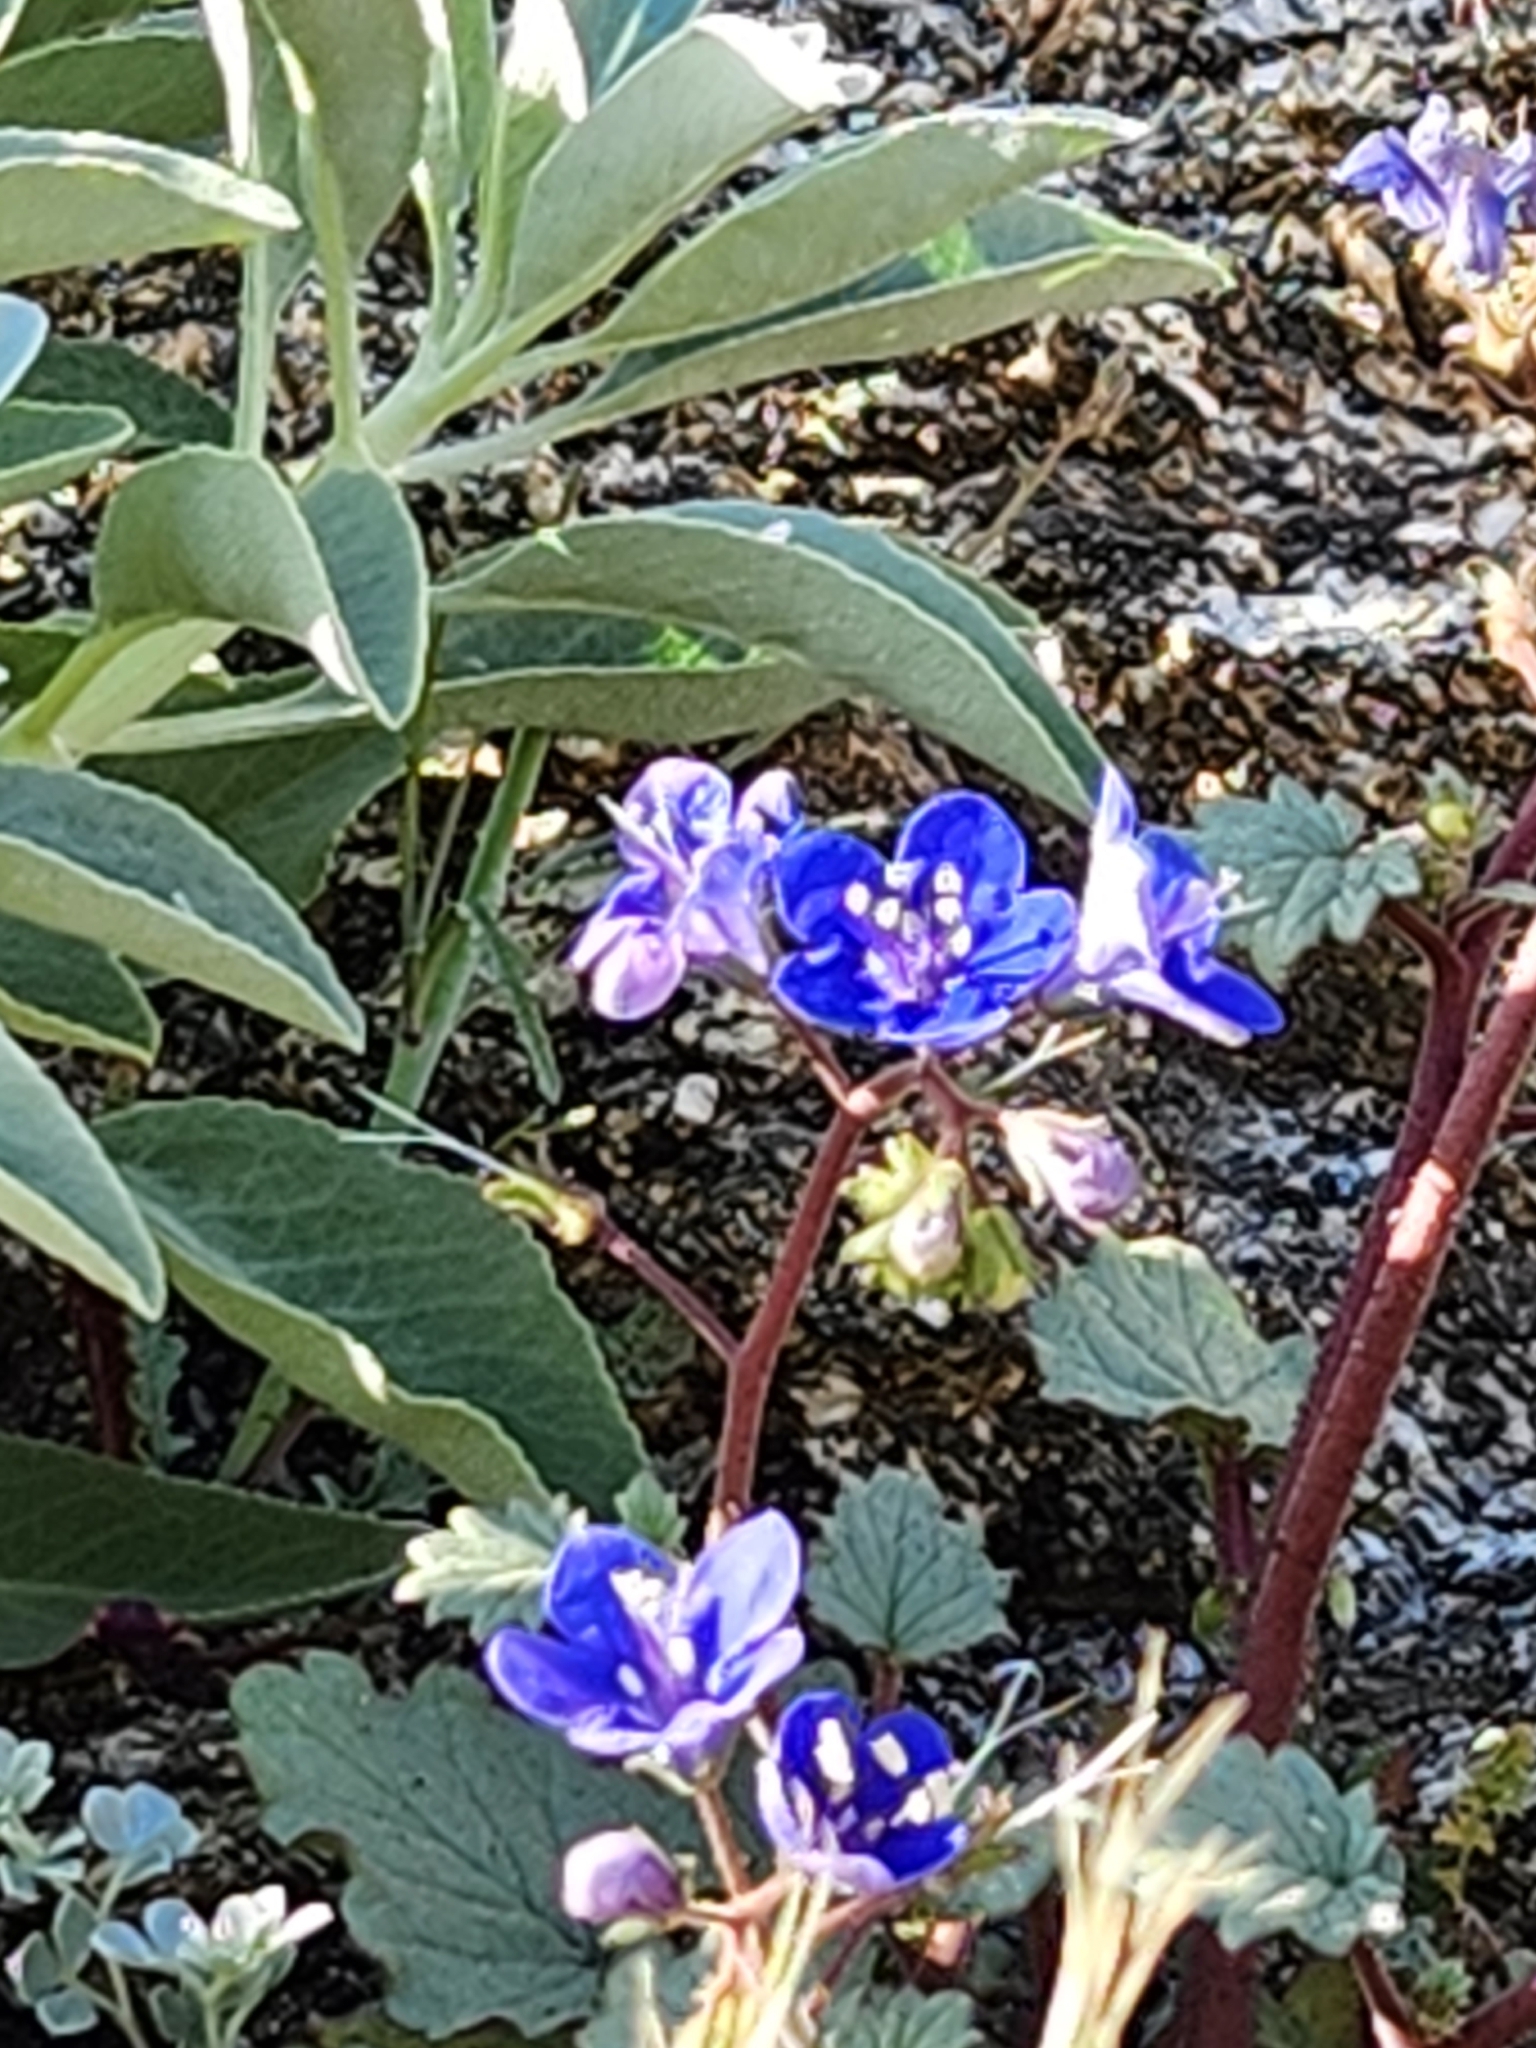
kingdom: Plantae
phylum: Tracheophyta
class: Magnoliopsida
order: Boraginales
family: Hydrophyllaceae
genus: Phacelia
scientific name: Phacelia campanularia
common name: California bluebell
